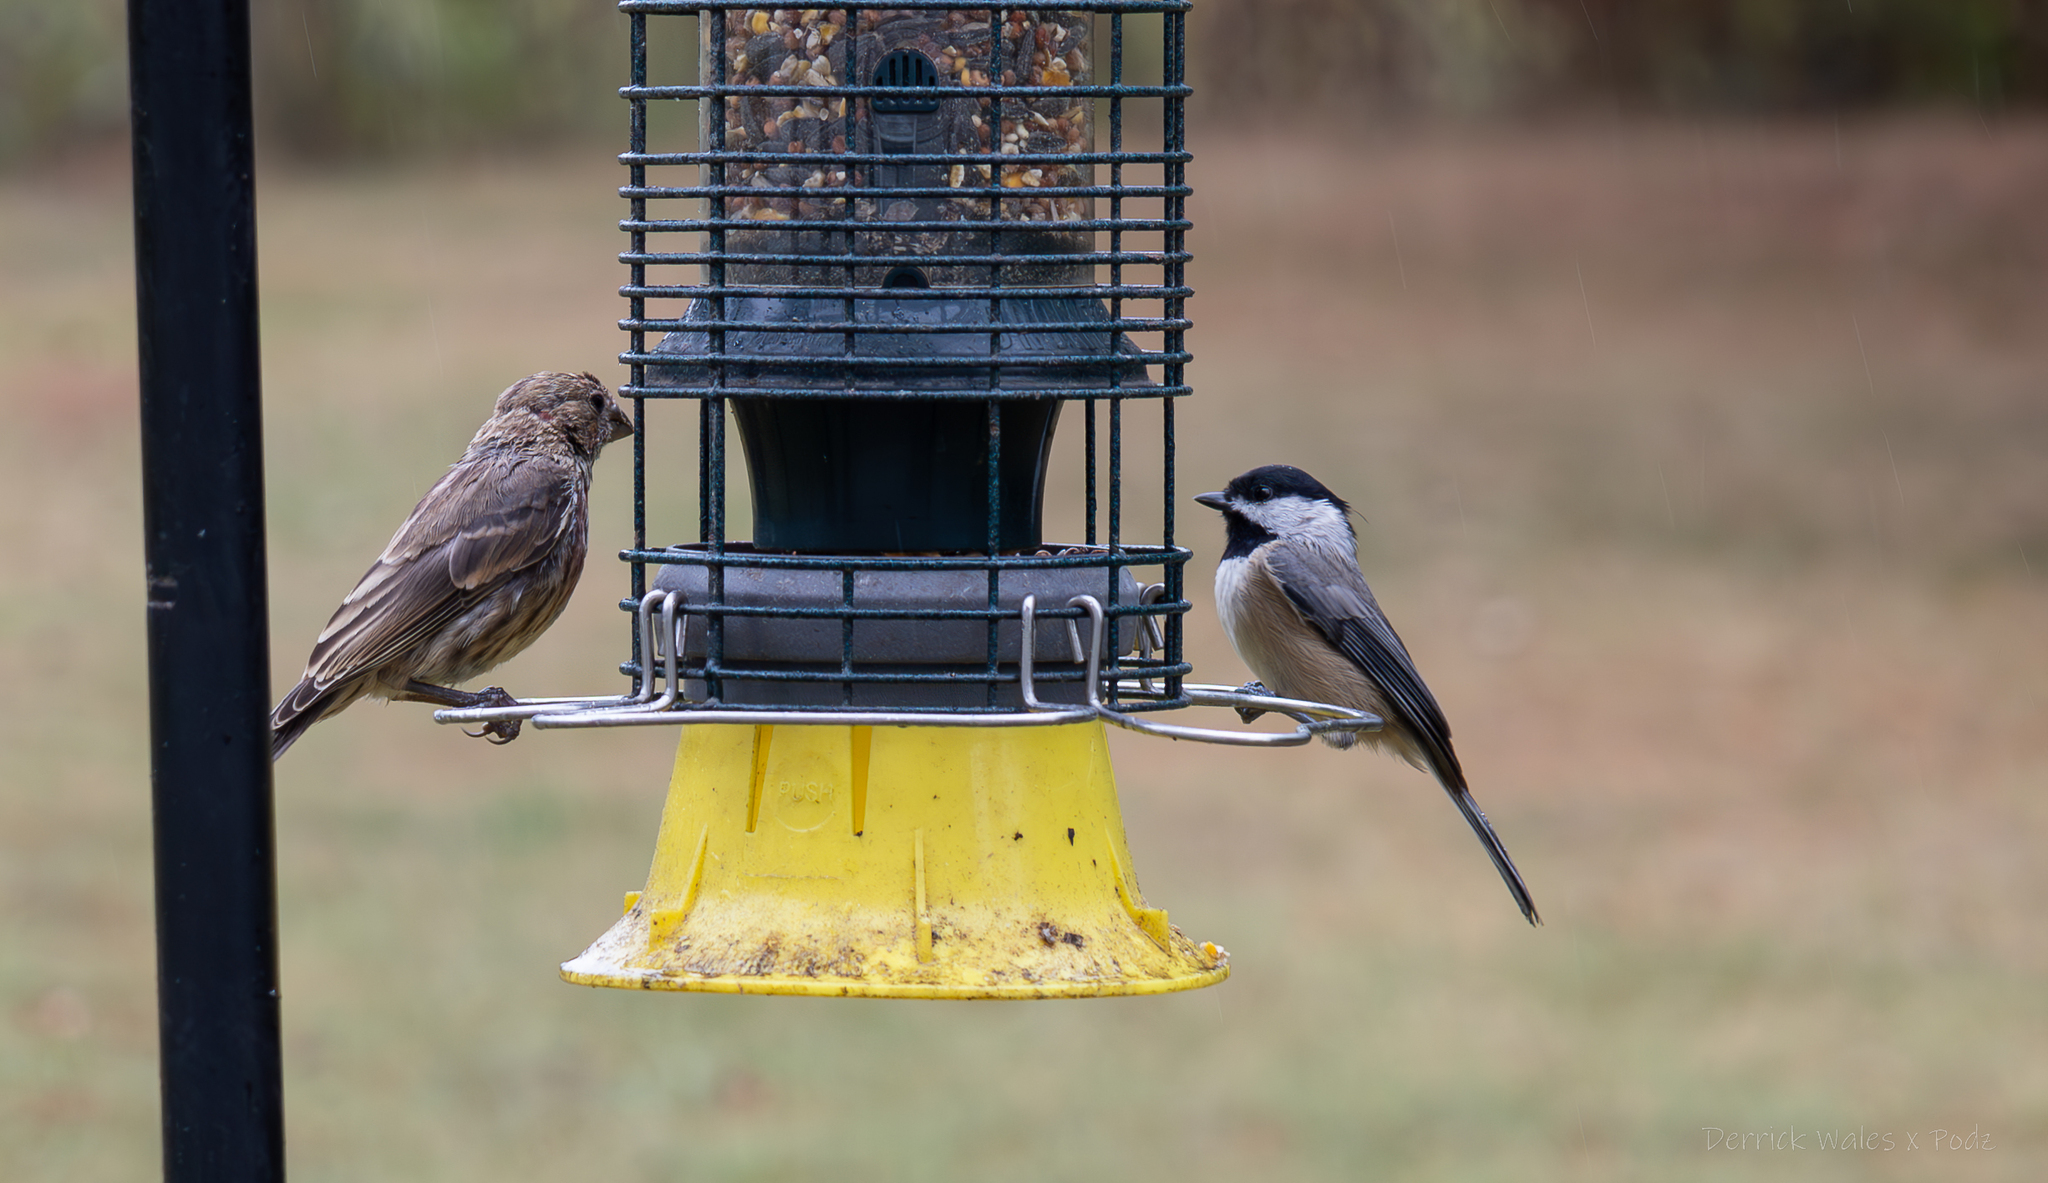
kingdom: Animalia
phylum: Chordata
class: Aves
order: Passeriformes
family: Paridae
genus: Poecile
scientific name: Poecile carolinensis
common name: Carolina chickadee
